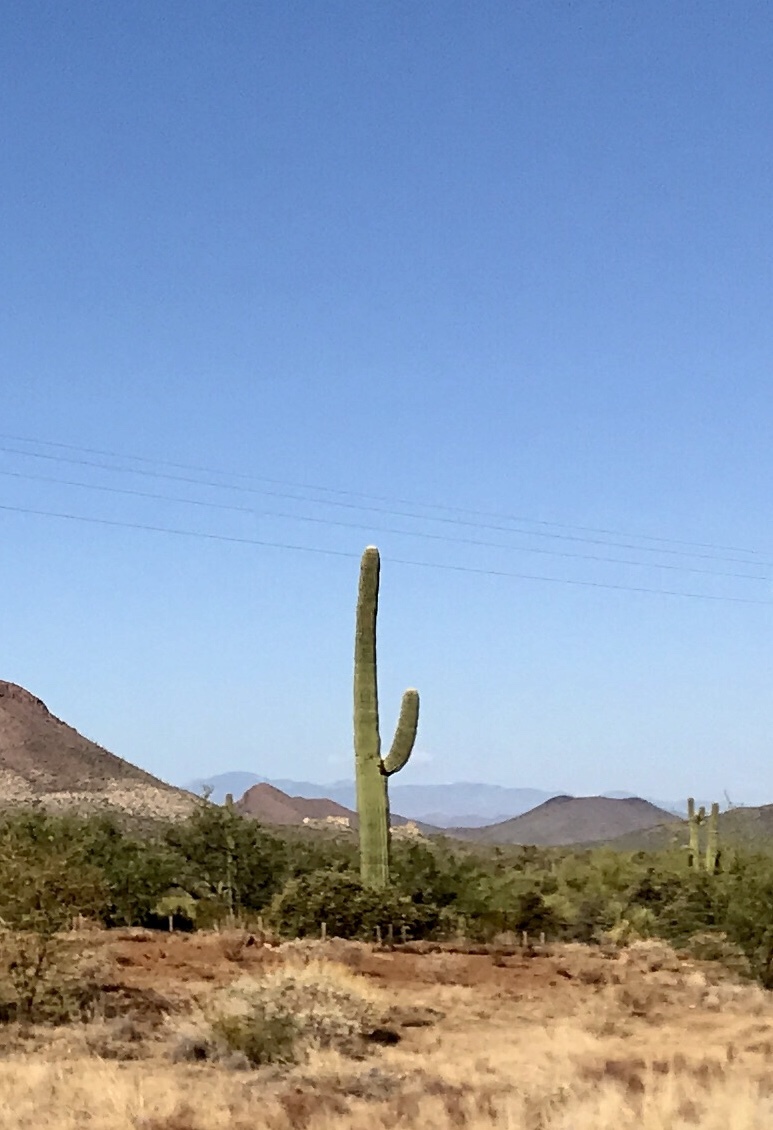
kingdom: Plantae
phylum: Tracheophyta
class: Magnoliopsida
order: Caryophyllales
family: Cactaceae
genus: Carnegiea
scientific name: Carnegiea gigantea
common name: Saguaro
